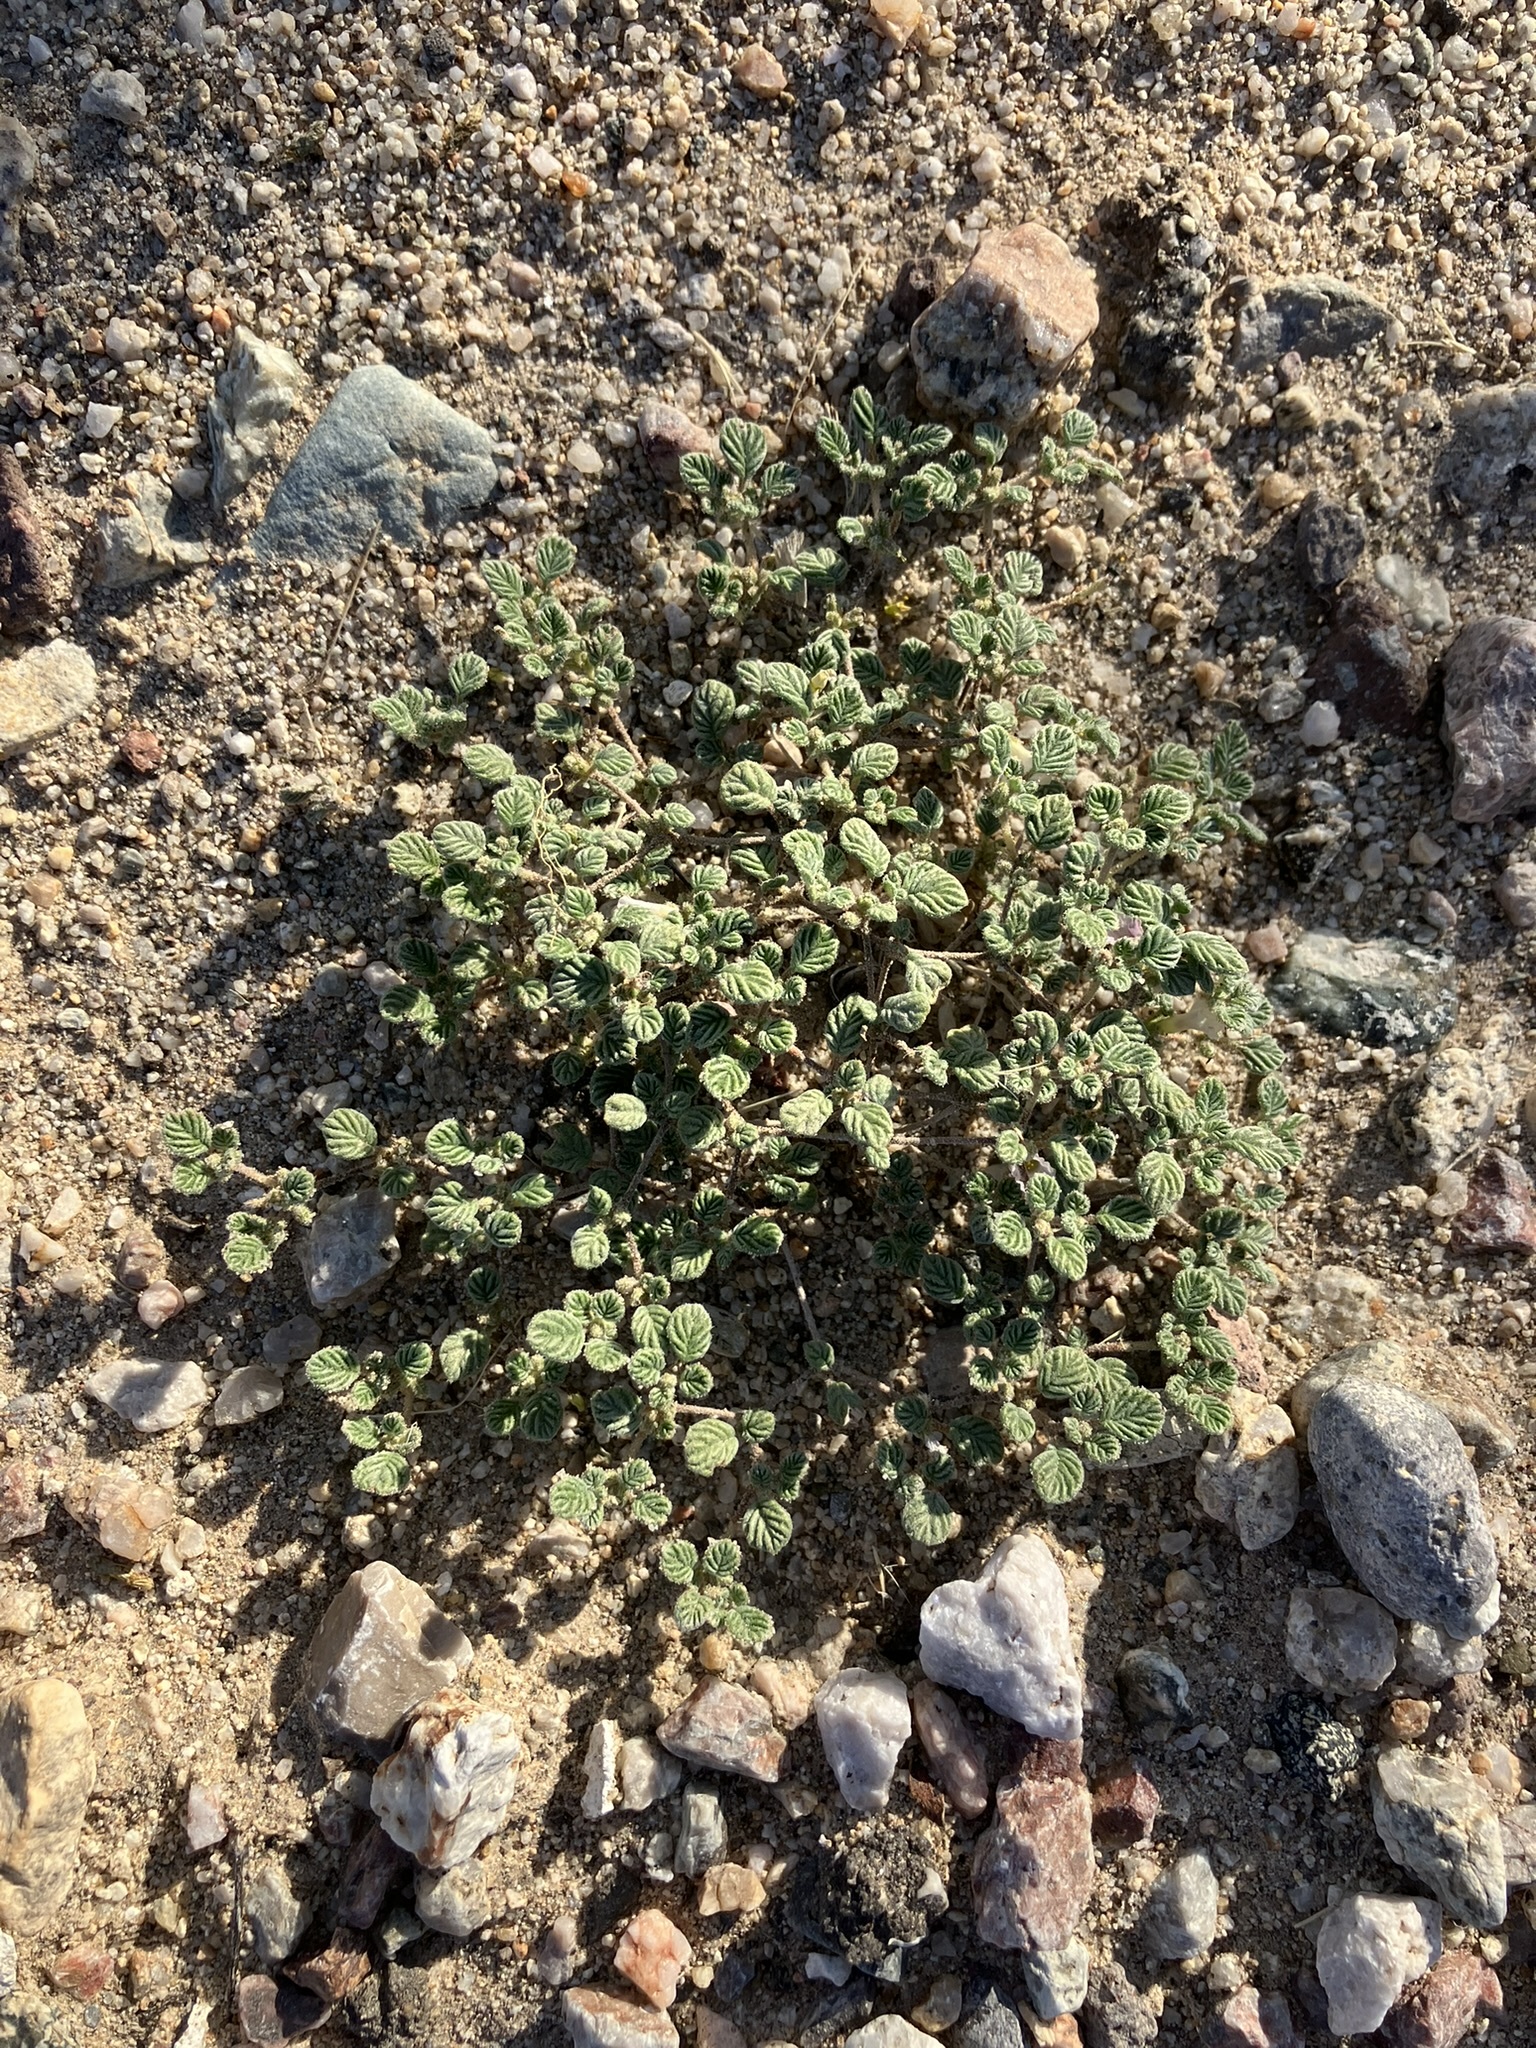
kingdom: Plantae
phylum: Tracheophyta
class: Magnoliopsida
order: Boraginales
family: Ehretiaceae
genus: Tiquilia
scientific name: Tiquilia plicata
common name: Fan-leaf tiquilia
